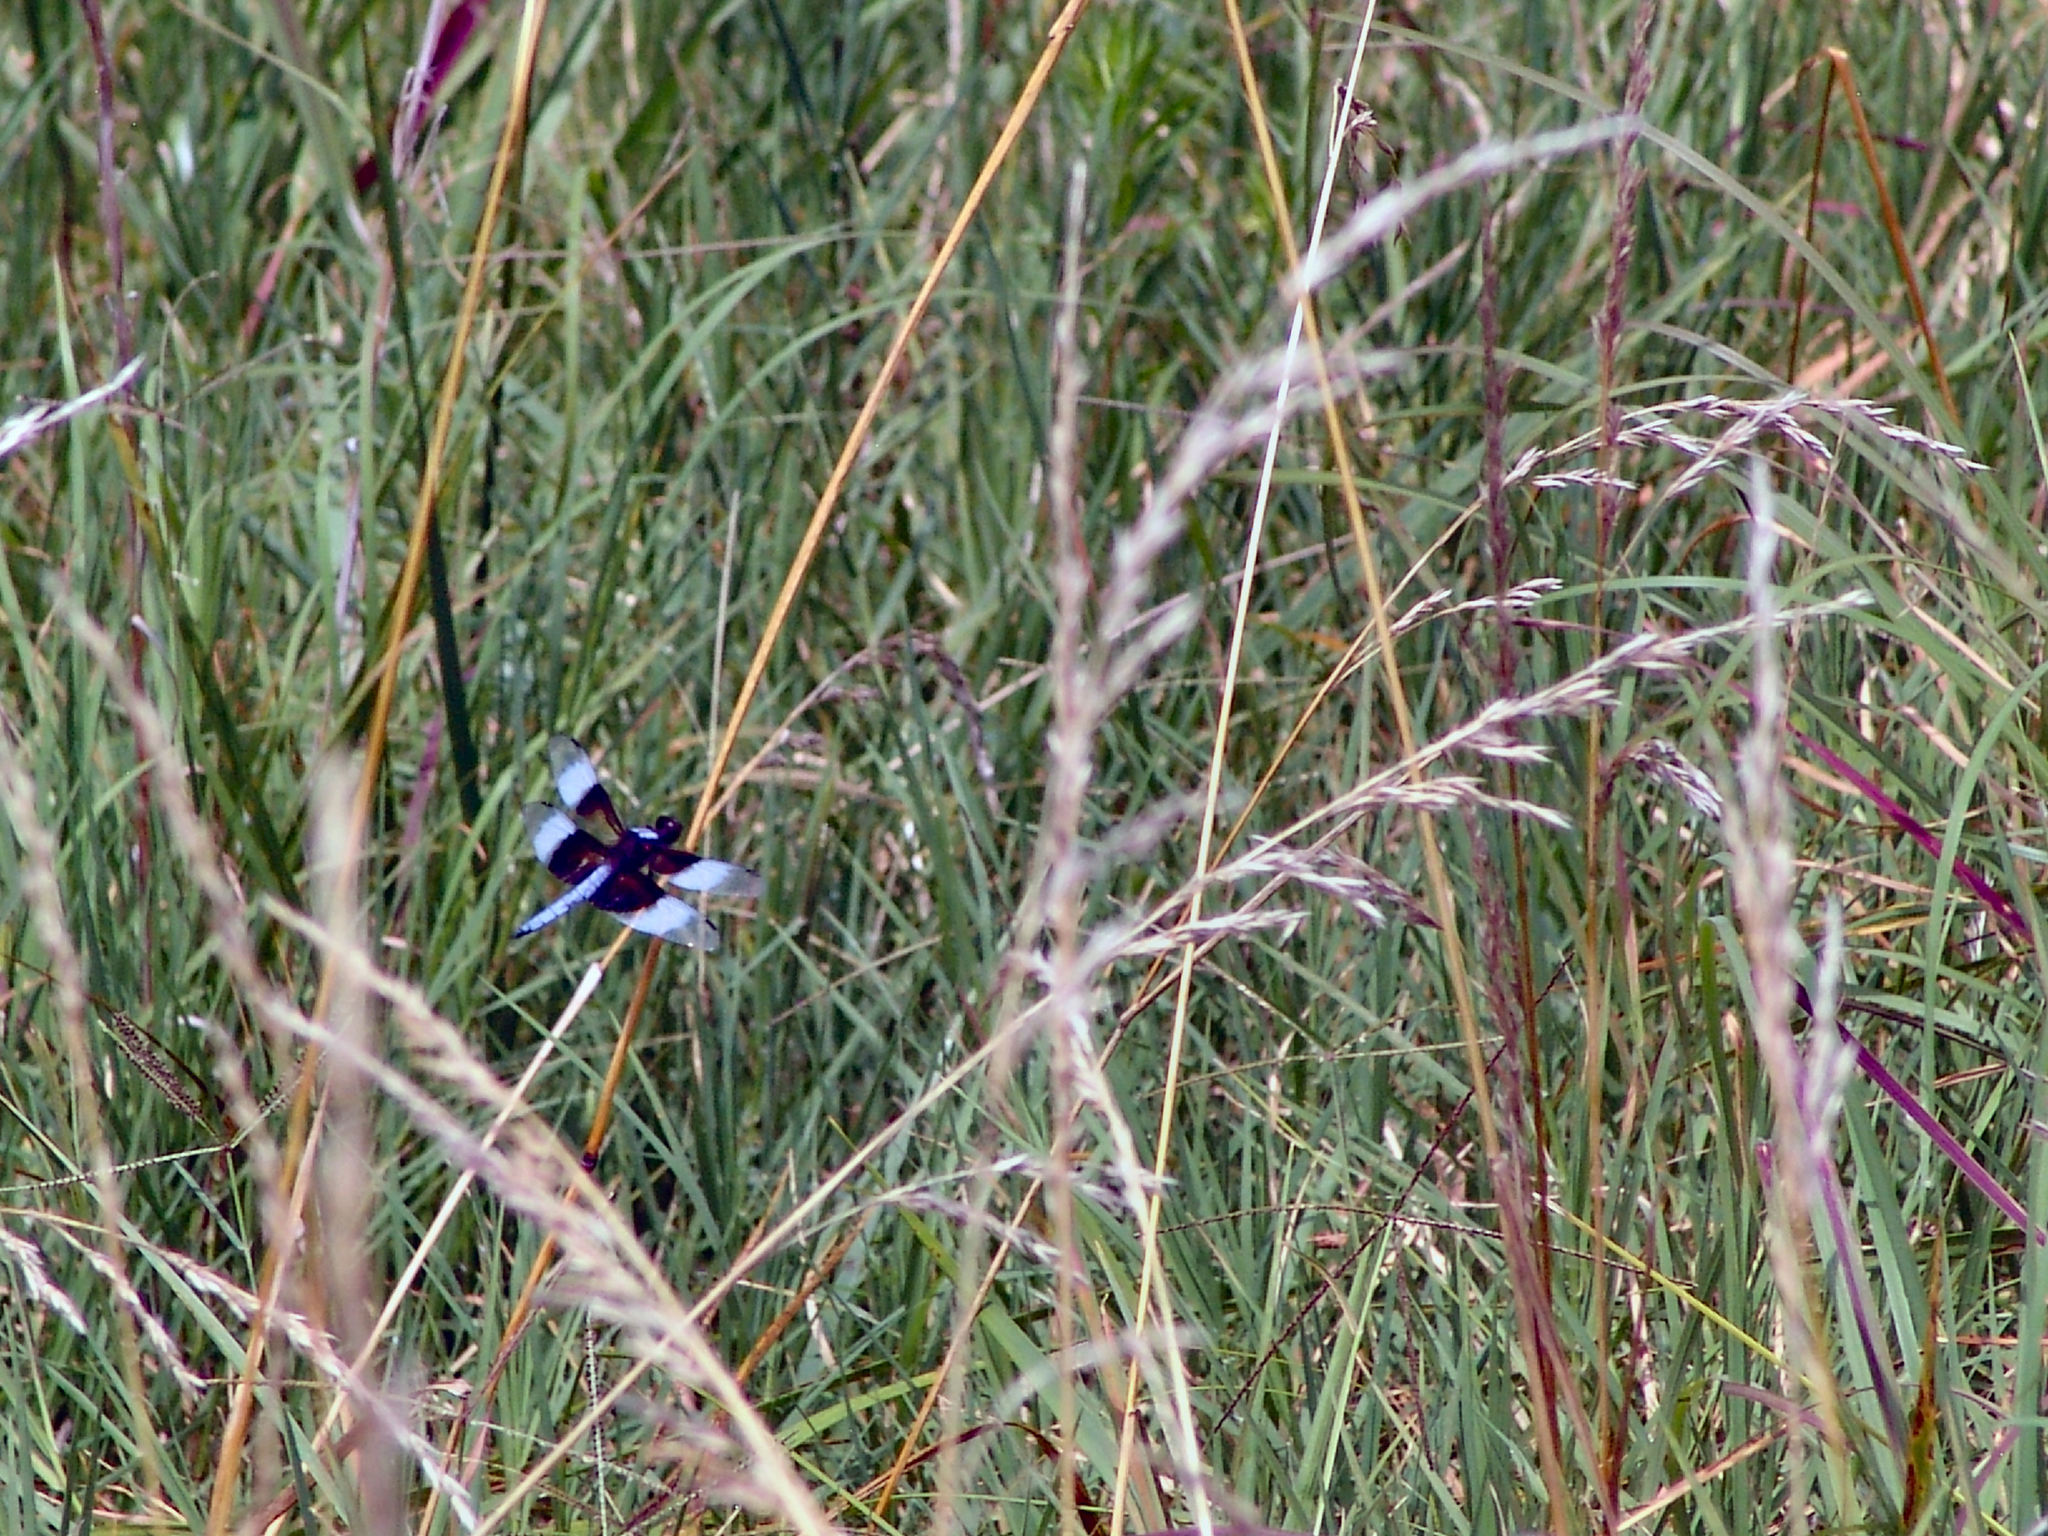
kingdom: Animalia
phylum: Arthropoda
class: Insecta
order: Odonata
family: Libellulidae
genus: Libellula
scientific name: Libellula luctuosa
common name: Widow skimmer
